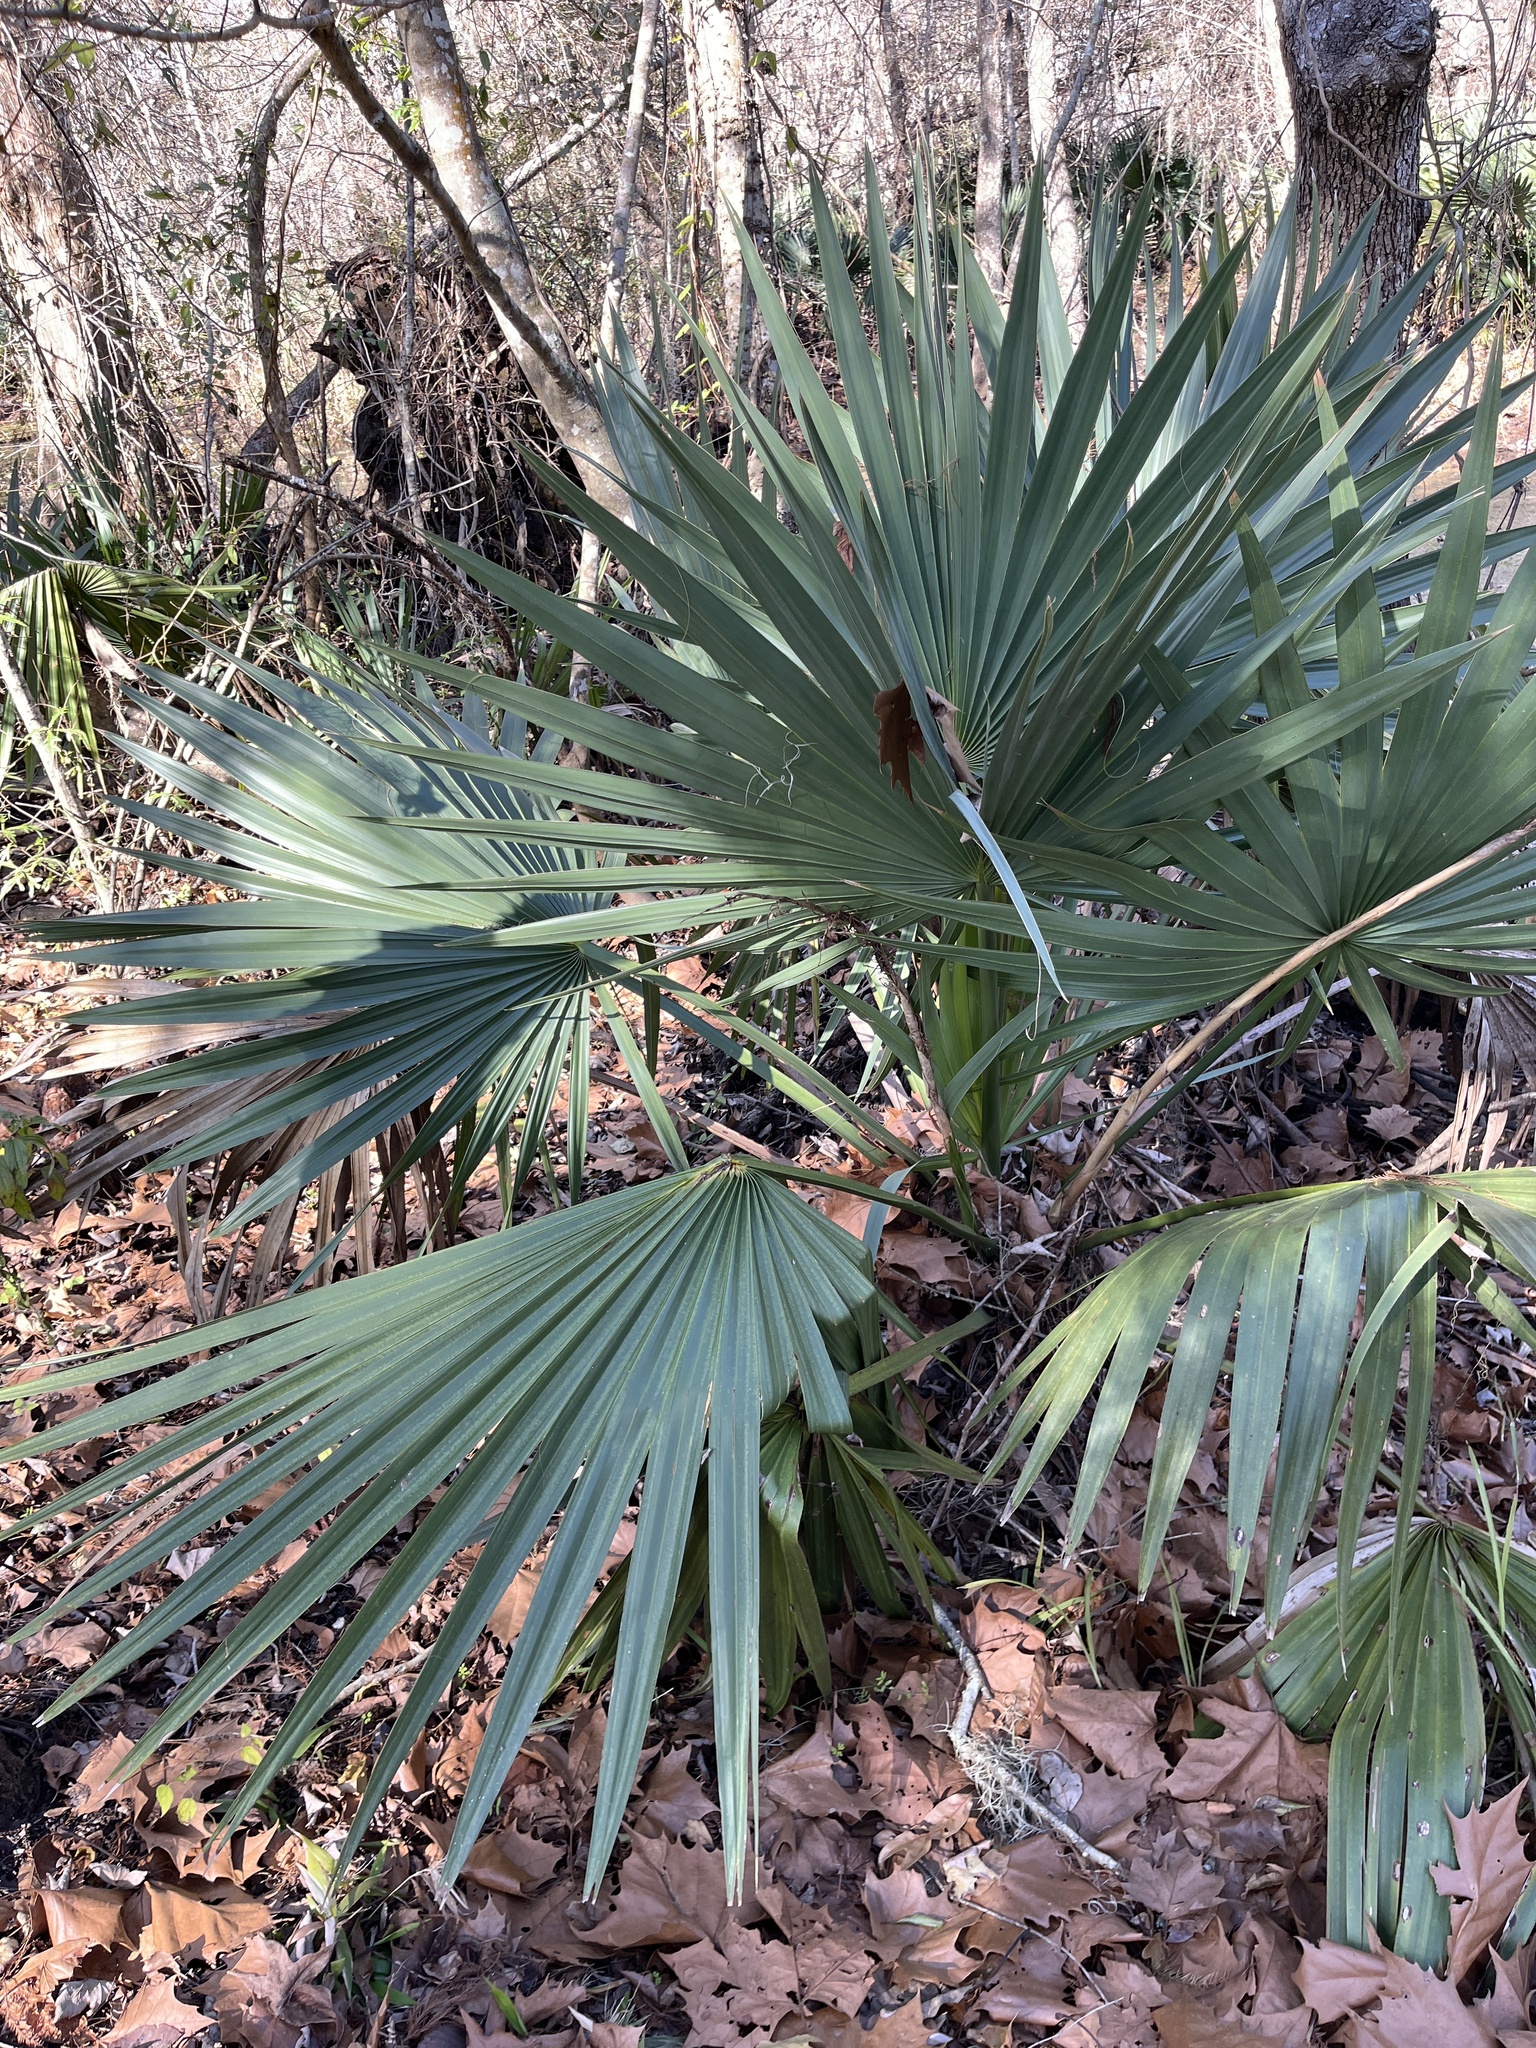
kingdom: Plantae
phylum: Tracheophyta
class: Liliopsida
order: Arecales
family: Arecaceae
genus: Sabal
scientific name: Sabal minor
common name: Dwarf palmetto
